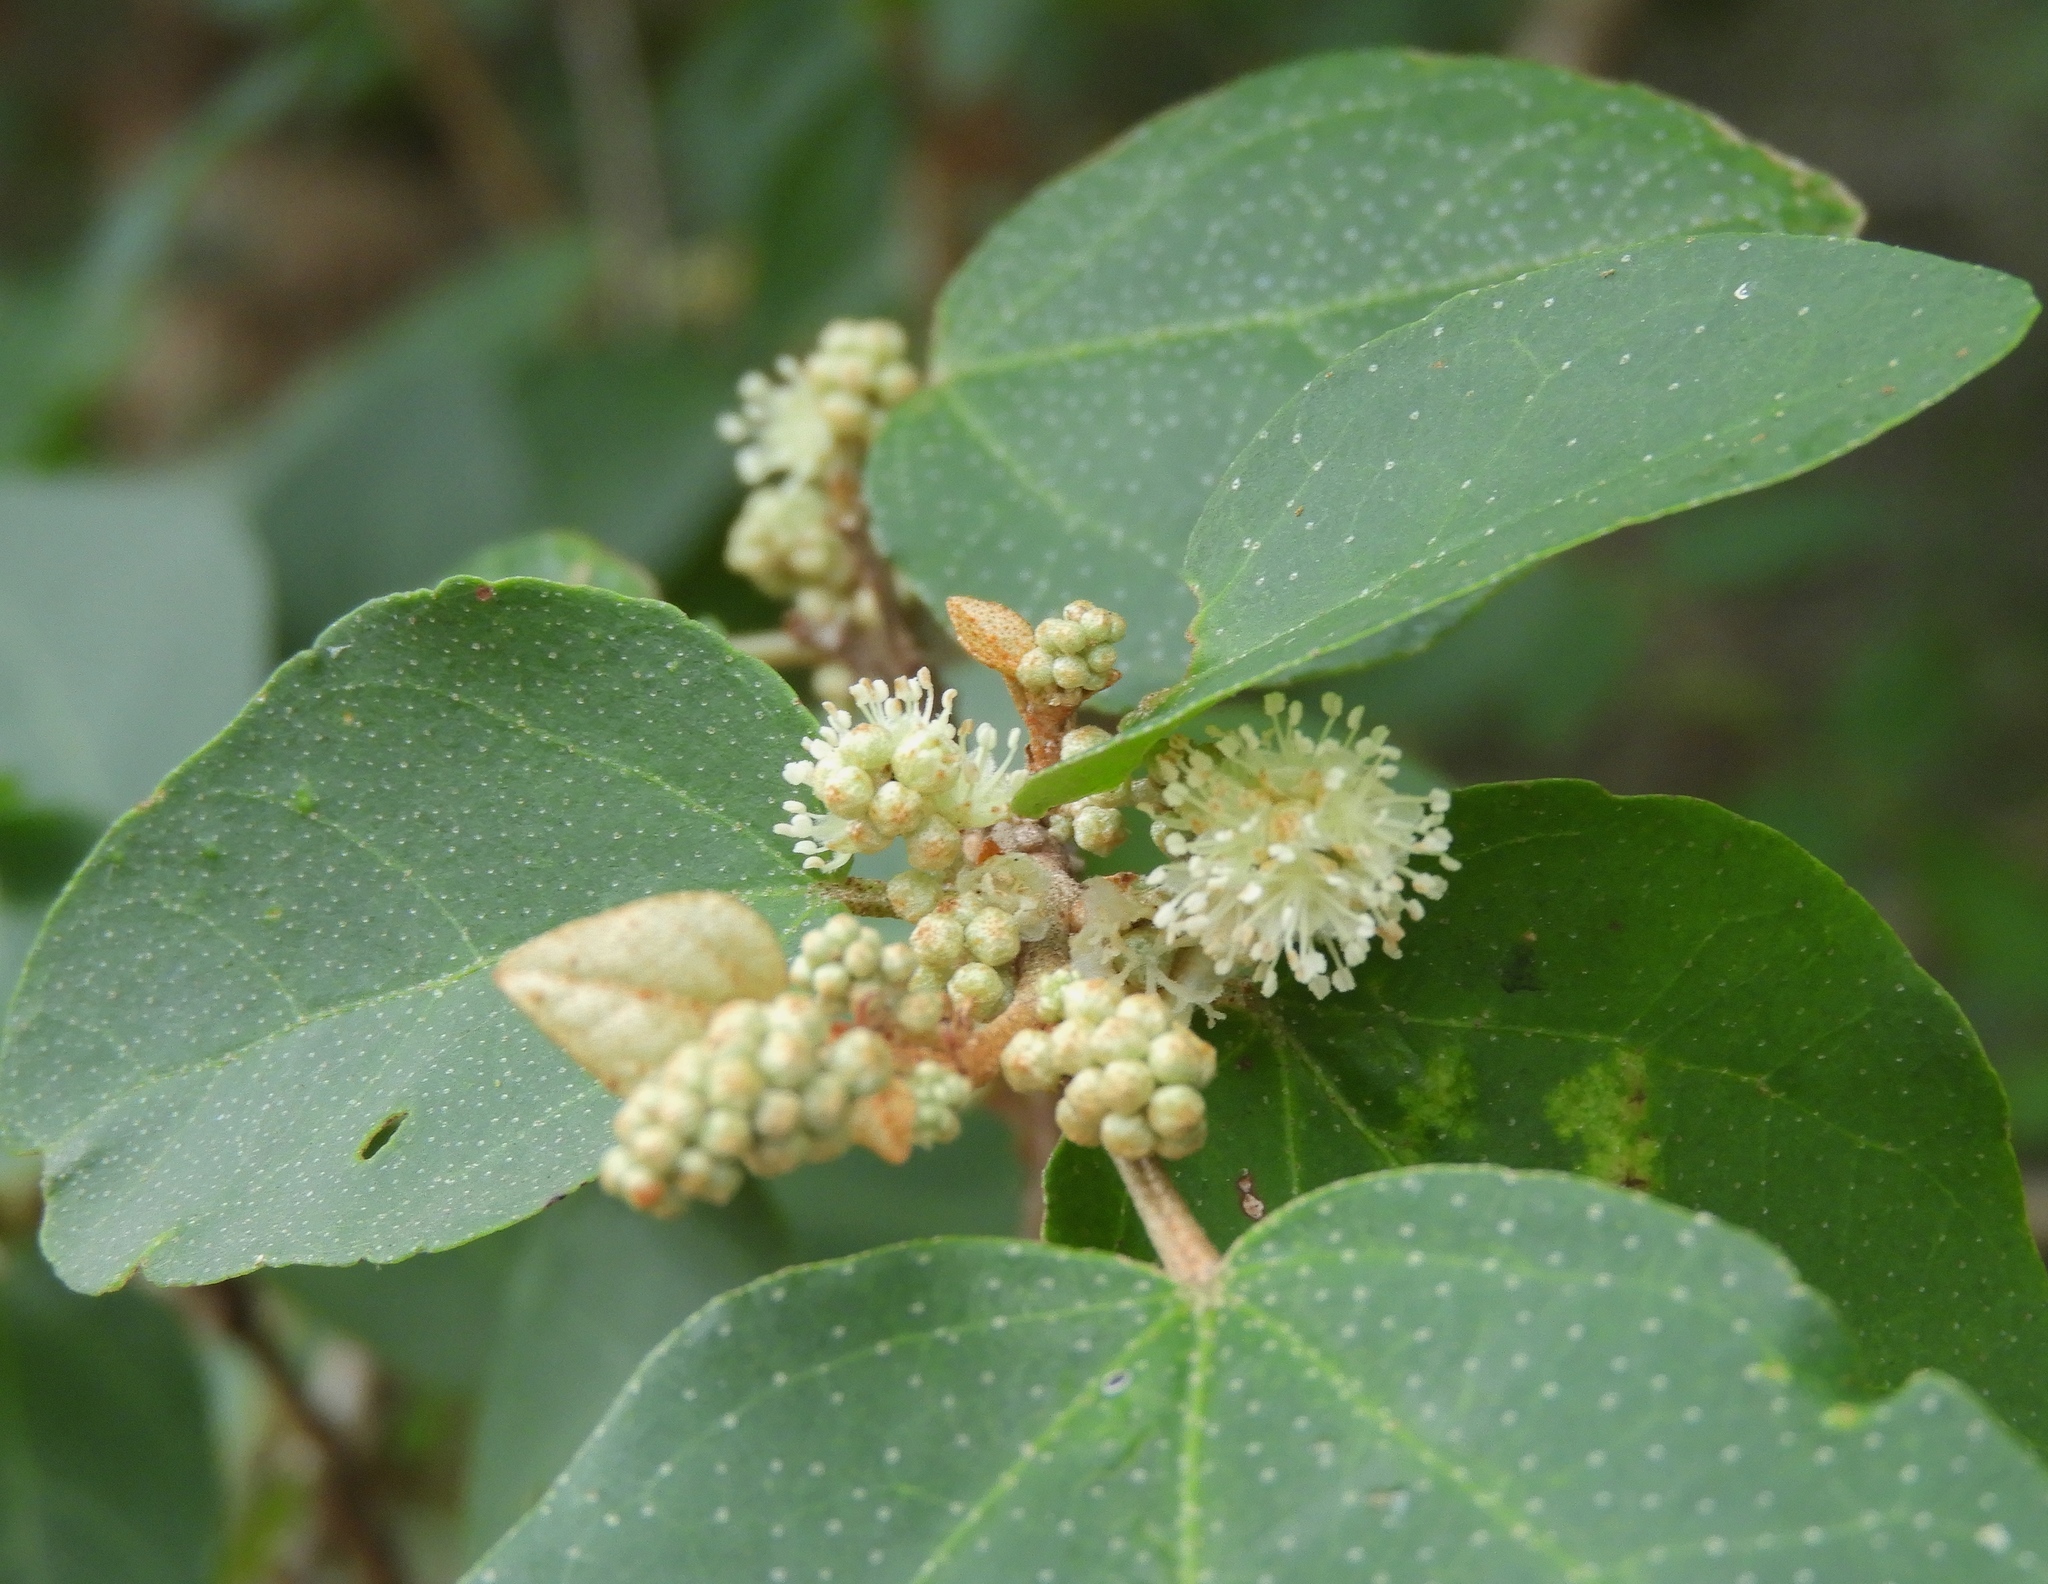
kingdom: Plantae
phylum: Tracheophyta
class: Magnoliopsida
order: Malpighiales
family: Euphorbiaceae
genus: Croton
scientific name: Croton pseudoniveus
